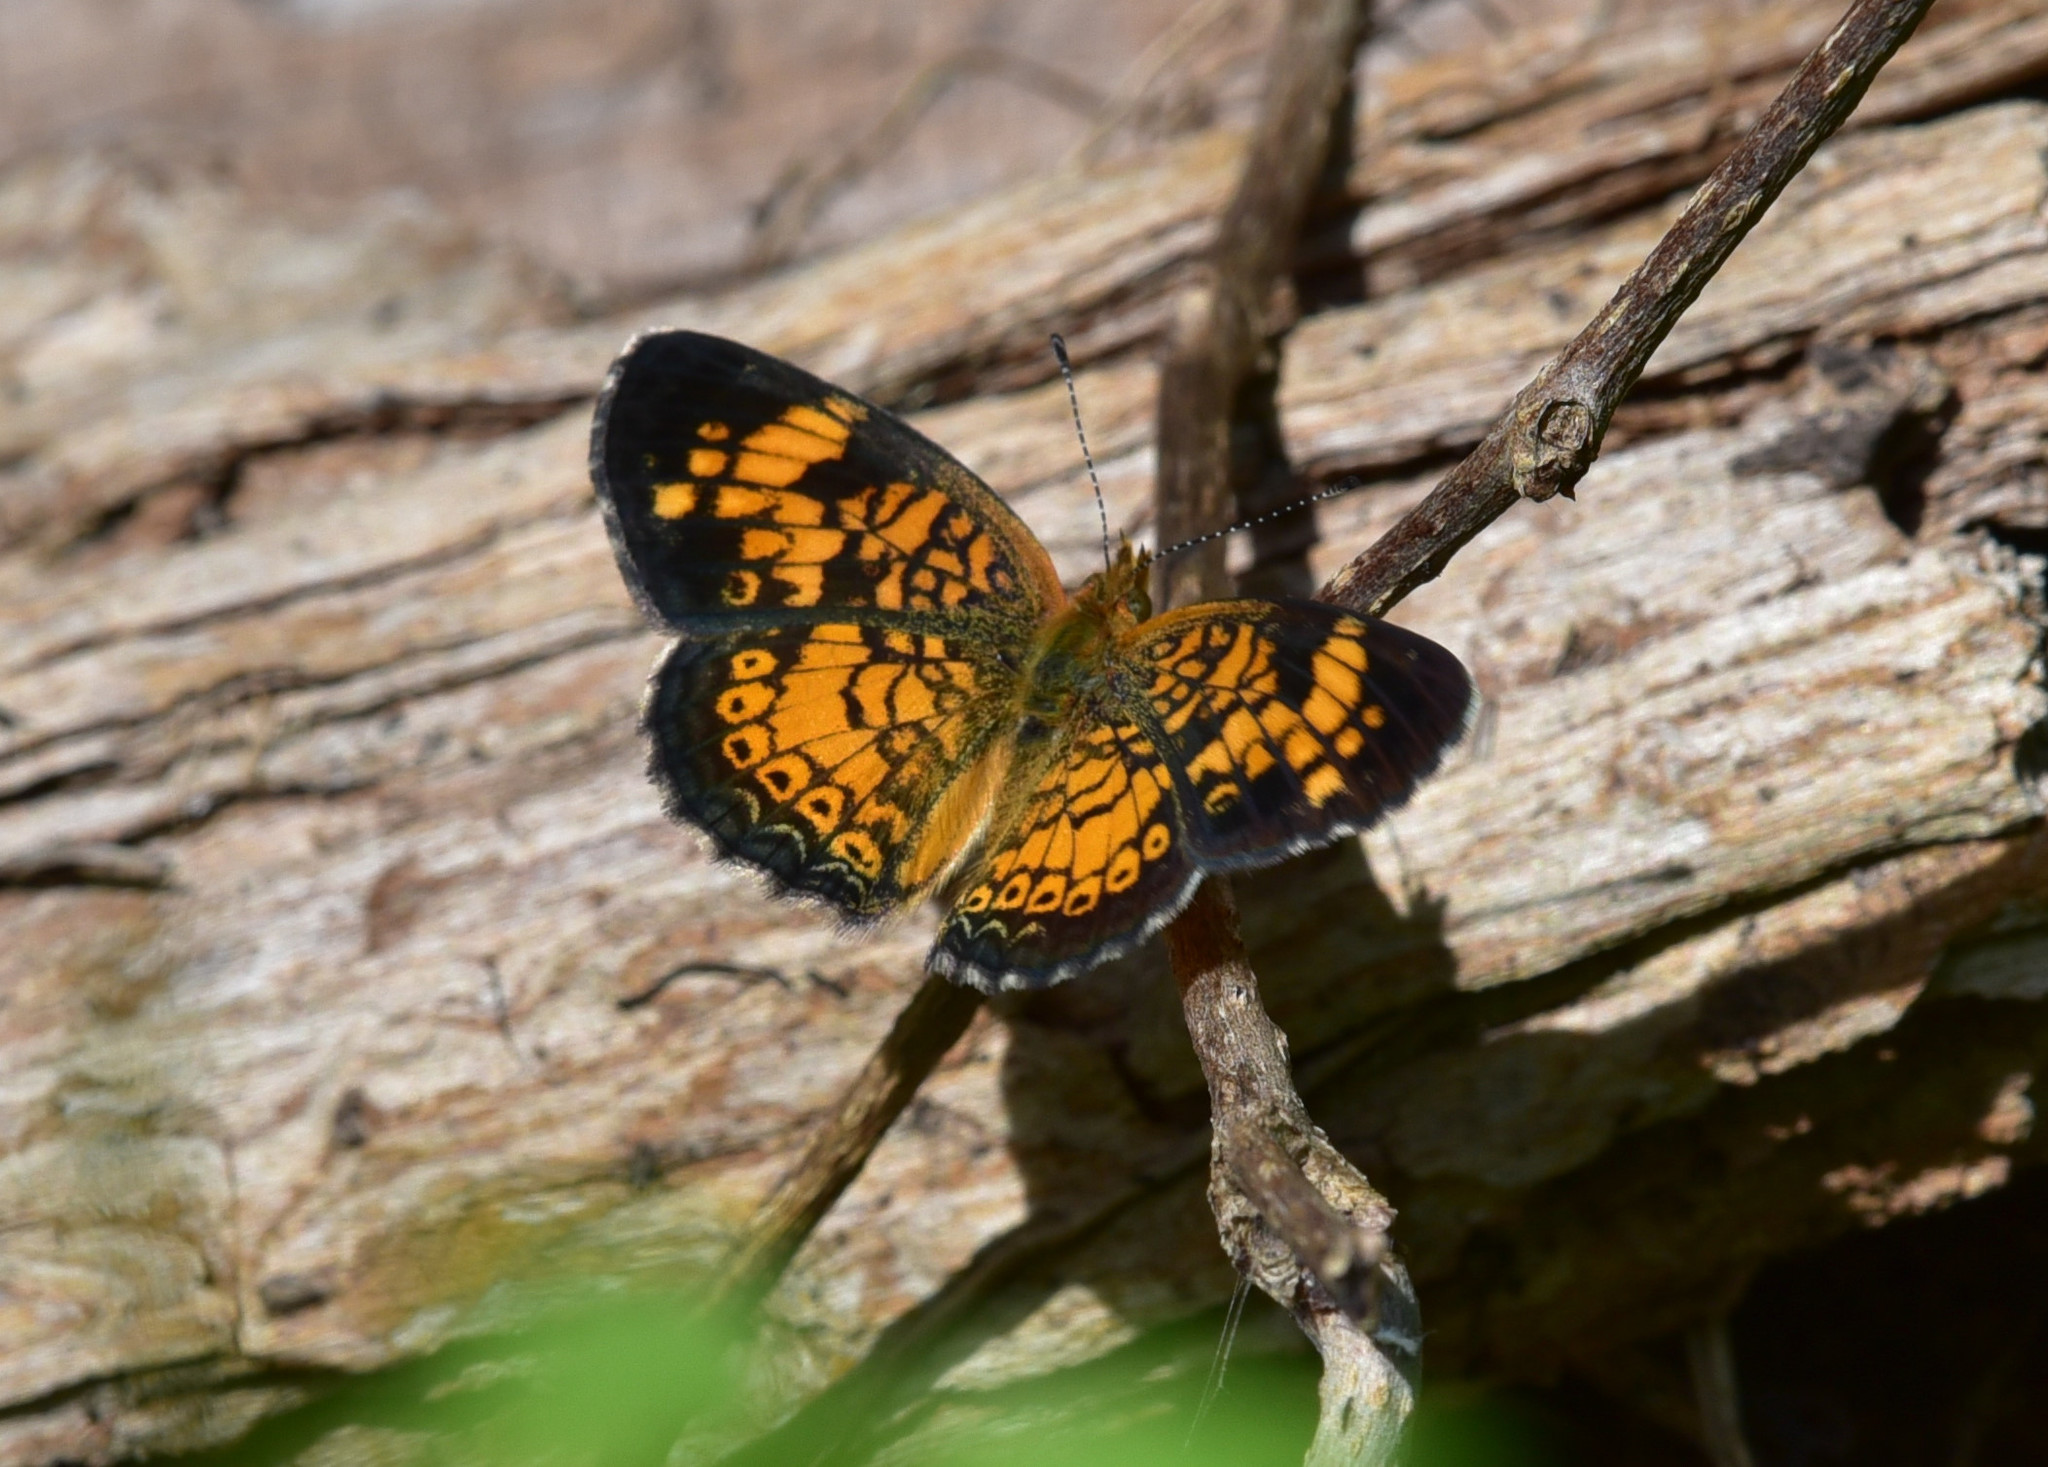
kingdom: Animalia
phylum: Arthropoda
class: Insecta
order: Lepidoptera
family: Nymphalidae
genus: Phyciodes
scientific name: Phyciodes tharos
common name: Pearl crescent
